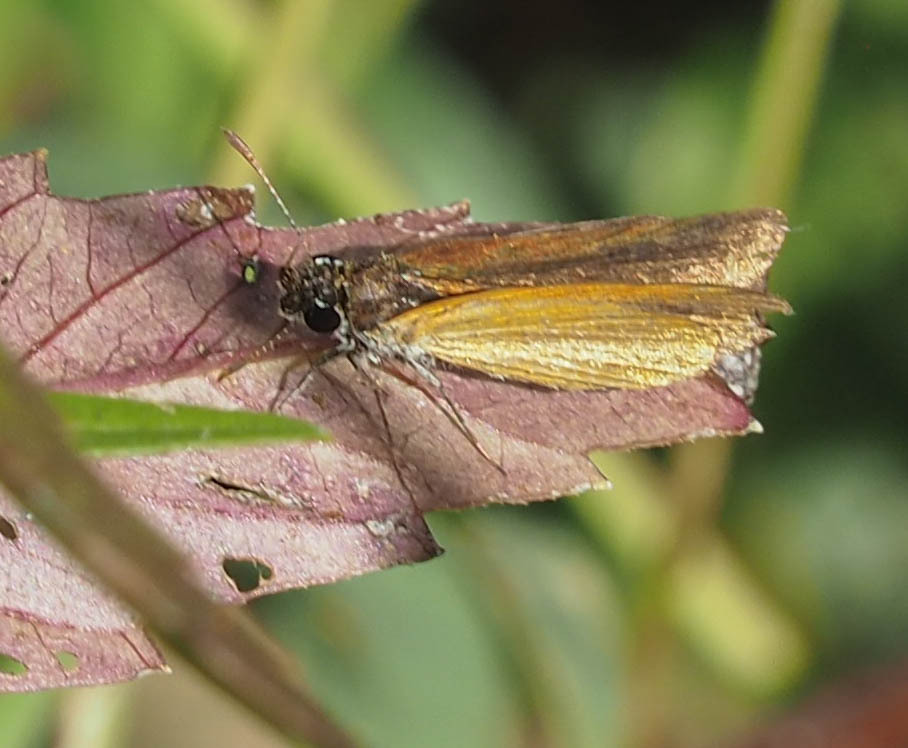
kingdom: Animalia
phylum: Arthropoda
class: Insecta
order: Lepidoptera
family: Hesperiidae
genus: Ancyloxypha
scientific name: Ancyloxypha numitor
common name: Least skipper
